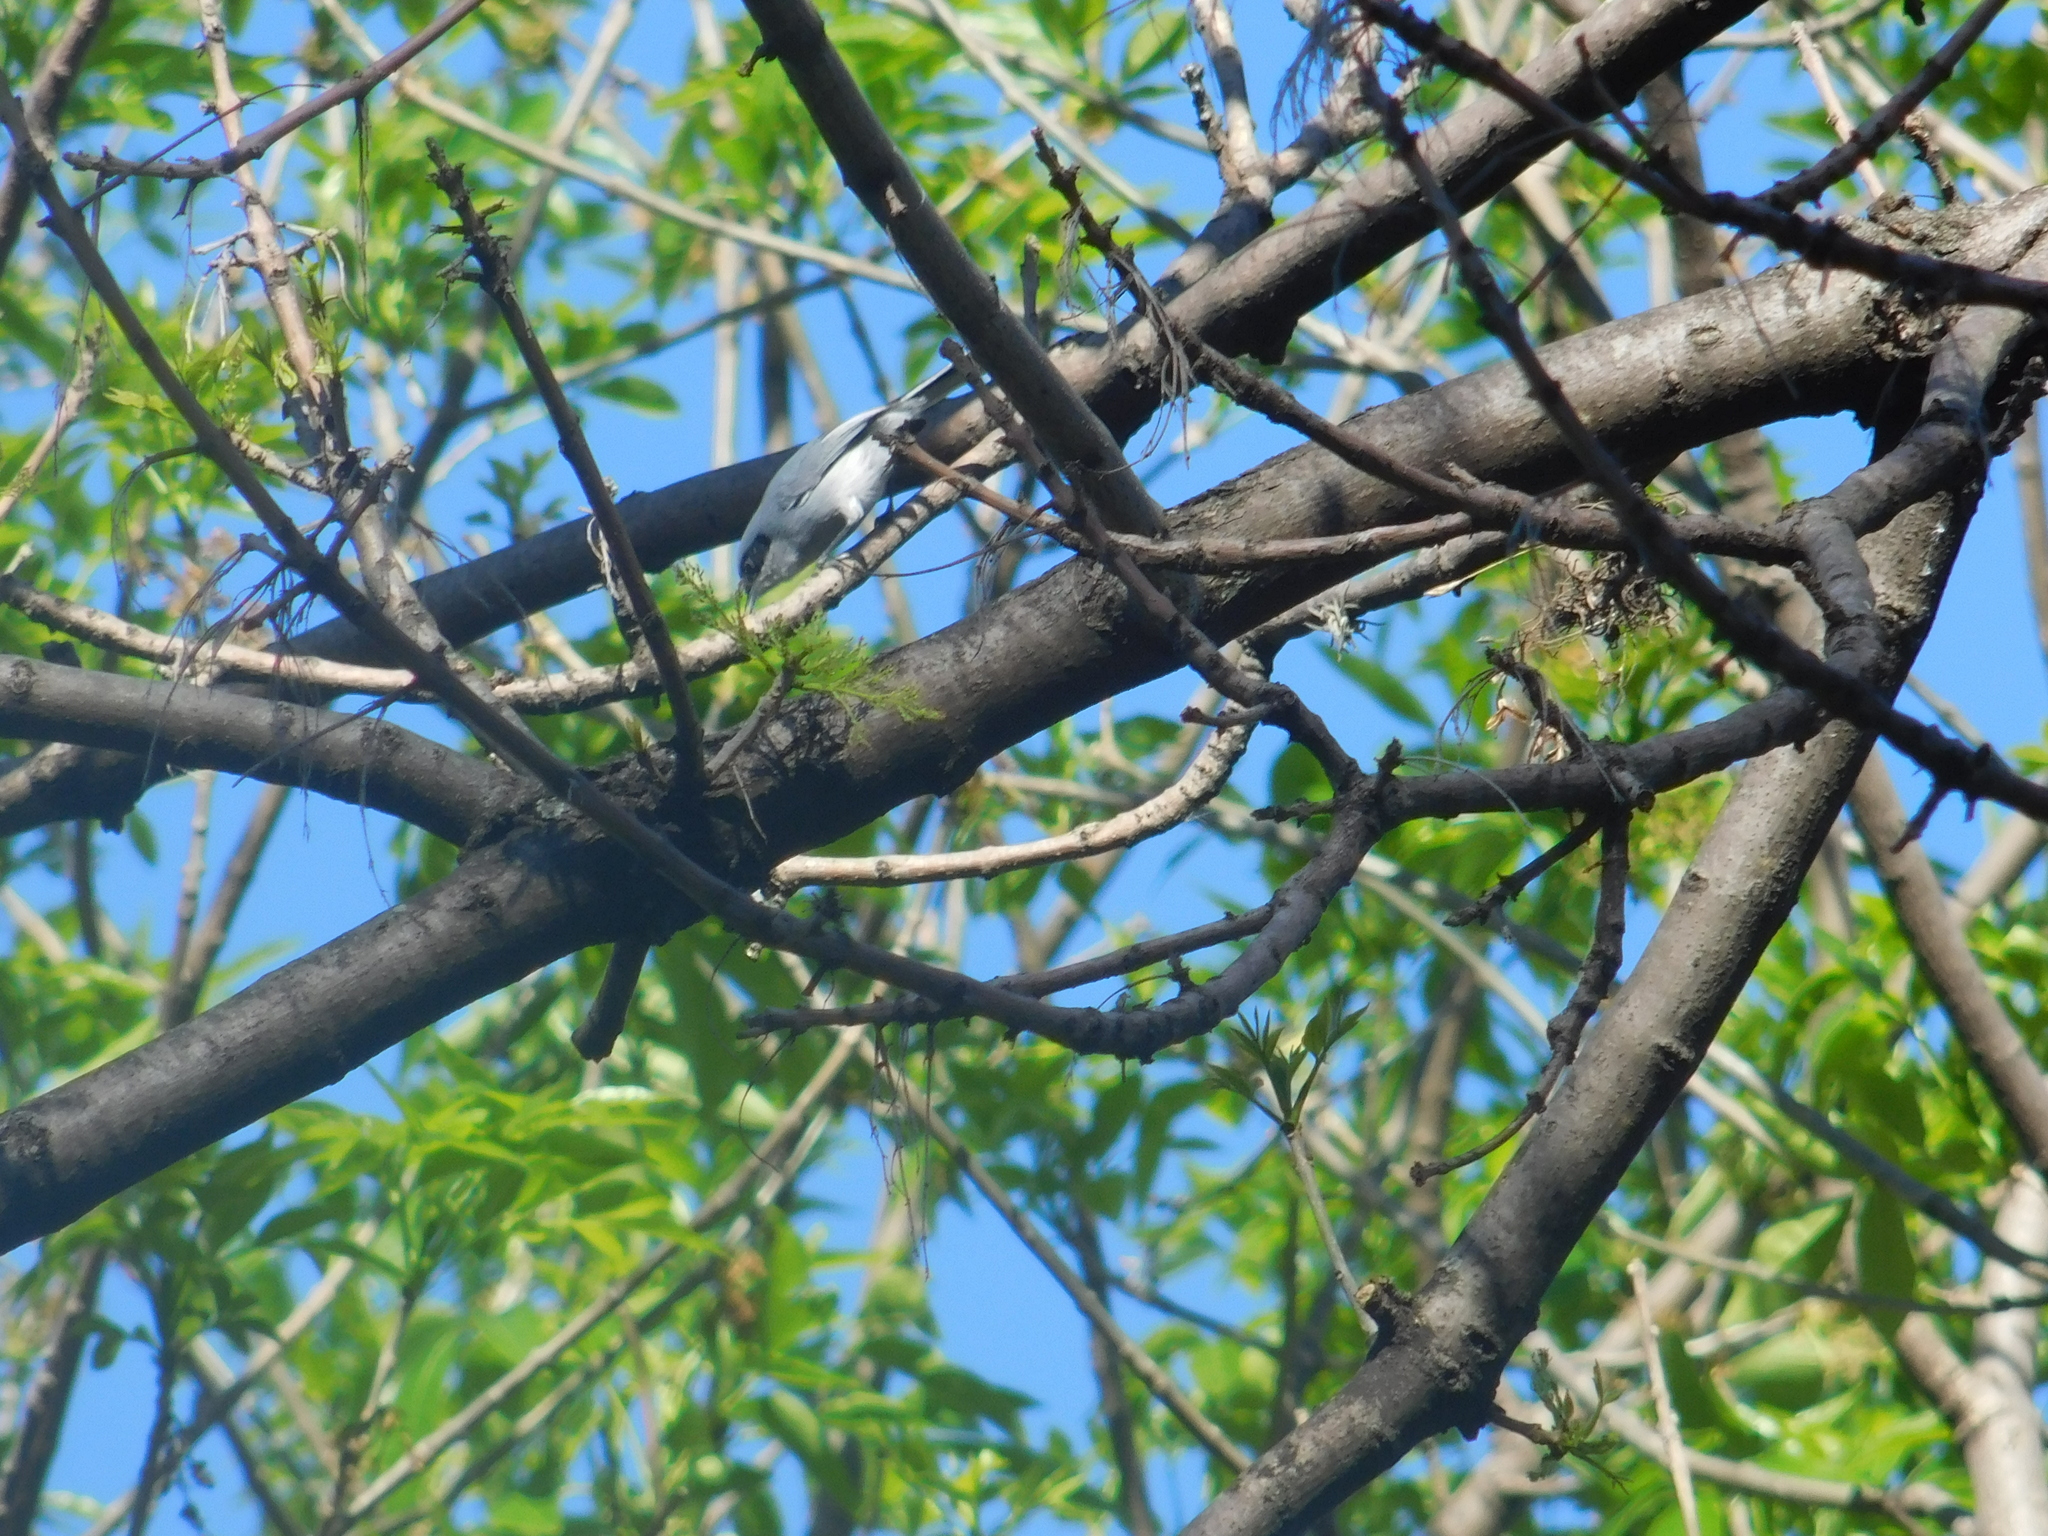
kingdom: Animalia
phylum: Chordata
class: Aves
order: Passeriformes
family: Polioptilidae
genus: Polioptila
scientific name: Polioptila dumicola
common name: Masked gnatcatcher
